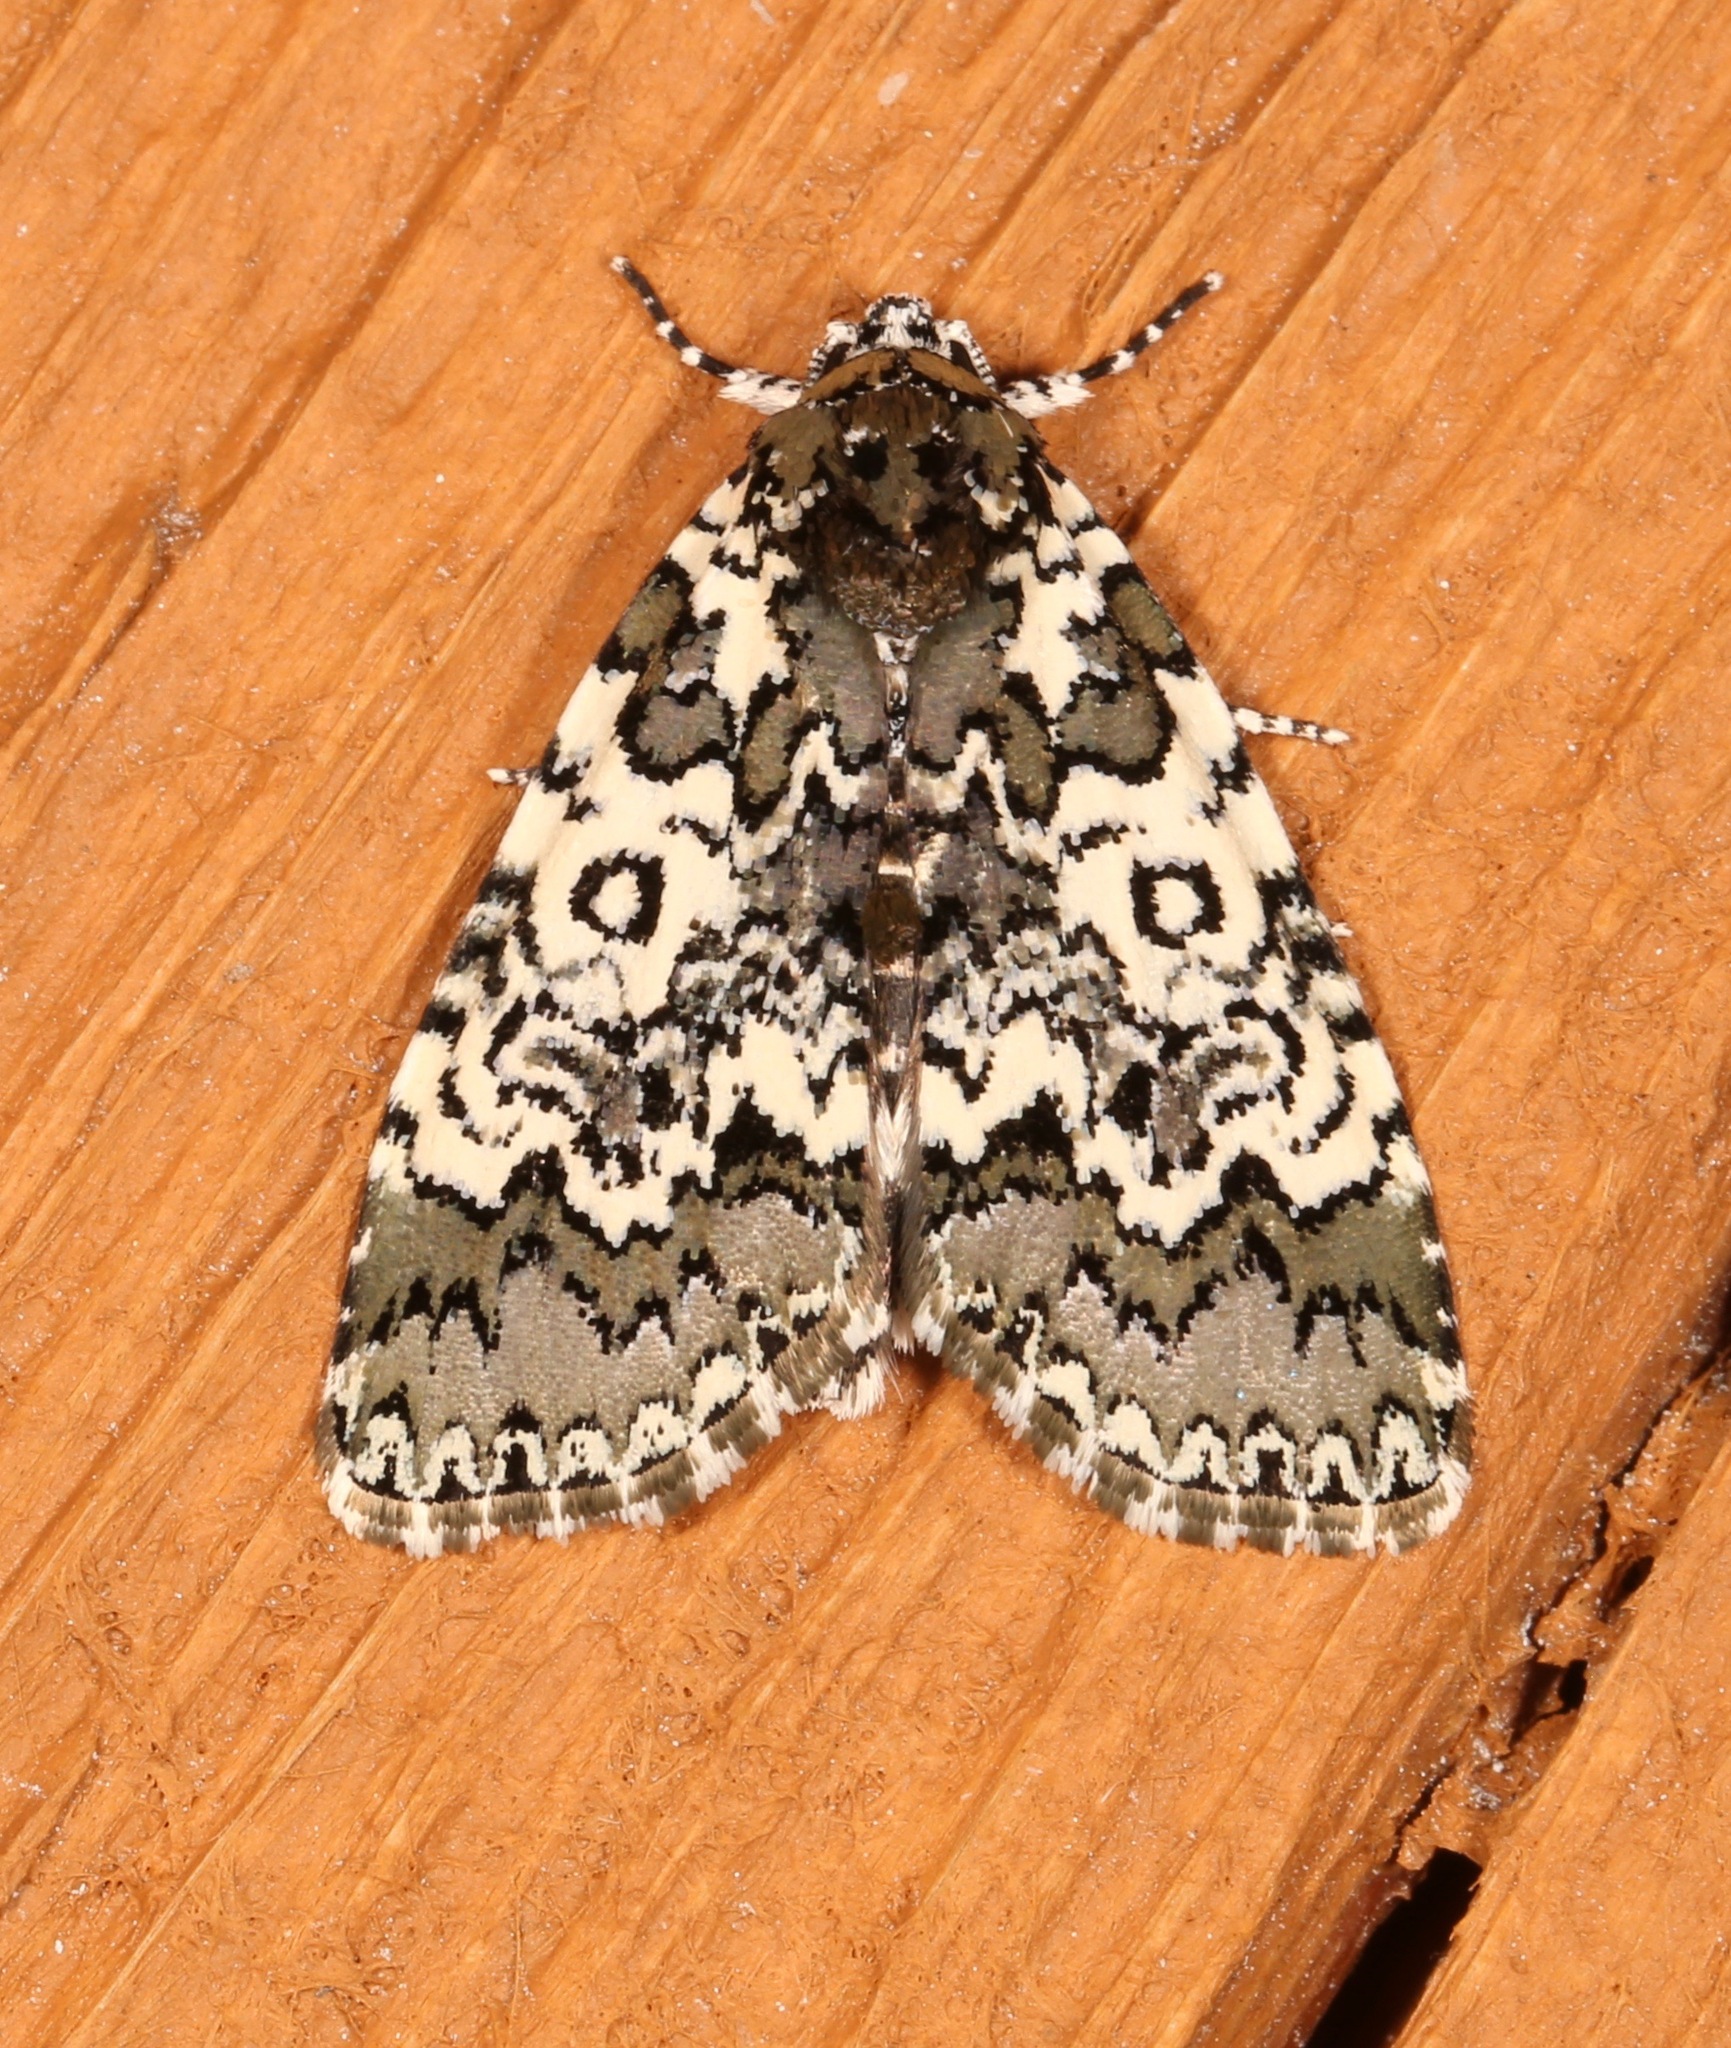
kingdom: Animalia
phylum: Arthropoda
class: Insecta
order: Lepidoptera
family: Noctuidae
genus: Cerma
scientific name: Cerma cora
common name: Bird dropping moth
